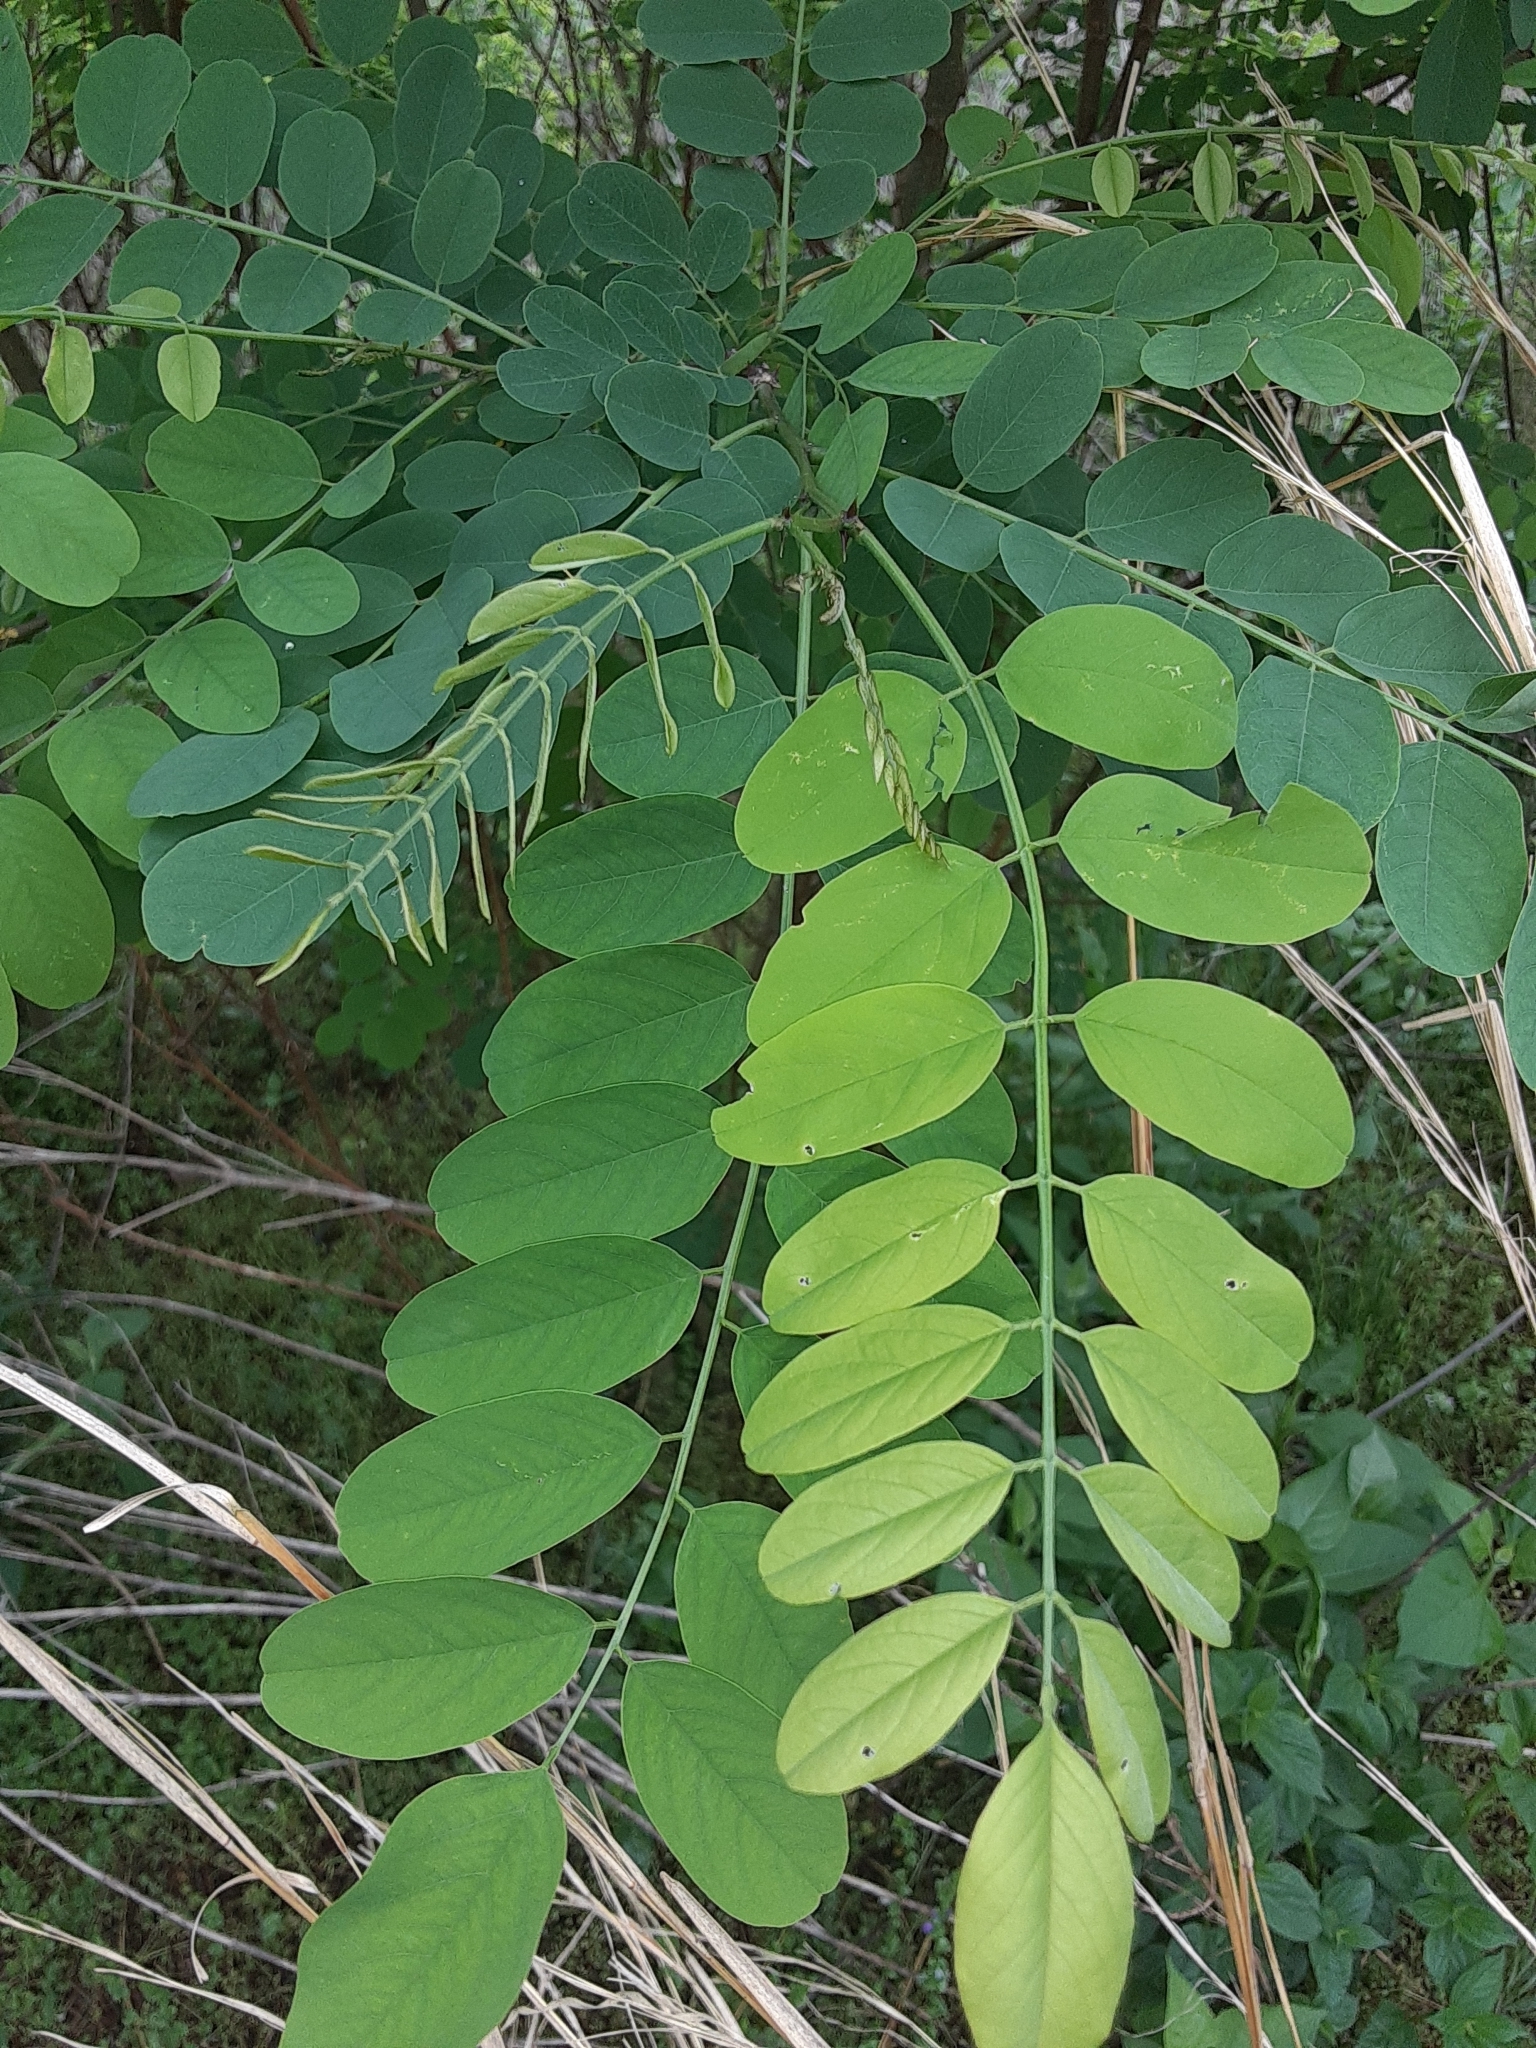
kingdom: Plantae
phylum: Tracheophyta
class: Magnoliopsida
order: Fabales
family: Fabaceae
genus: Robinia
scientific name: Robinia pseudoacacia
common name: Black locust
